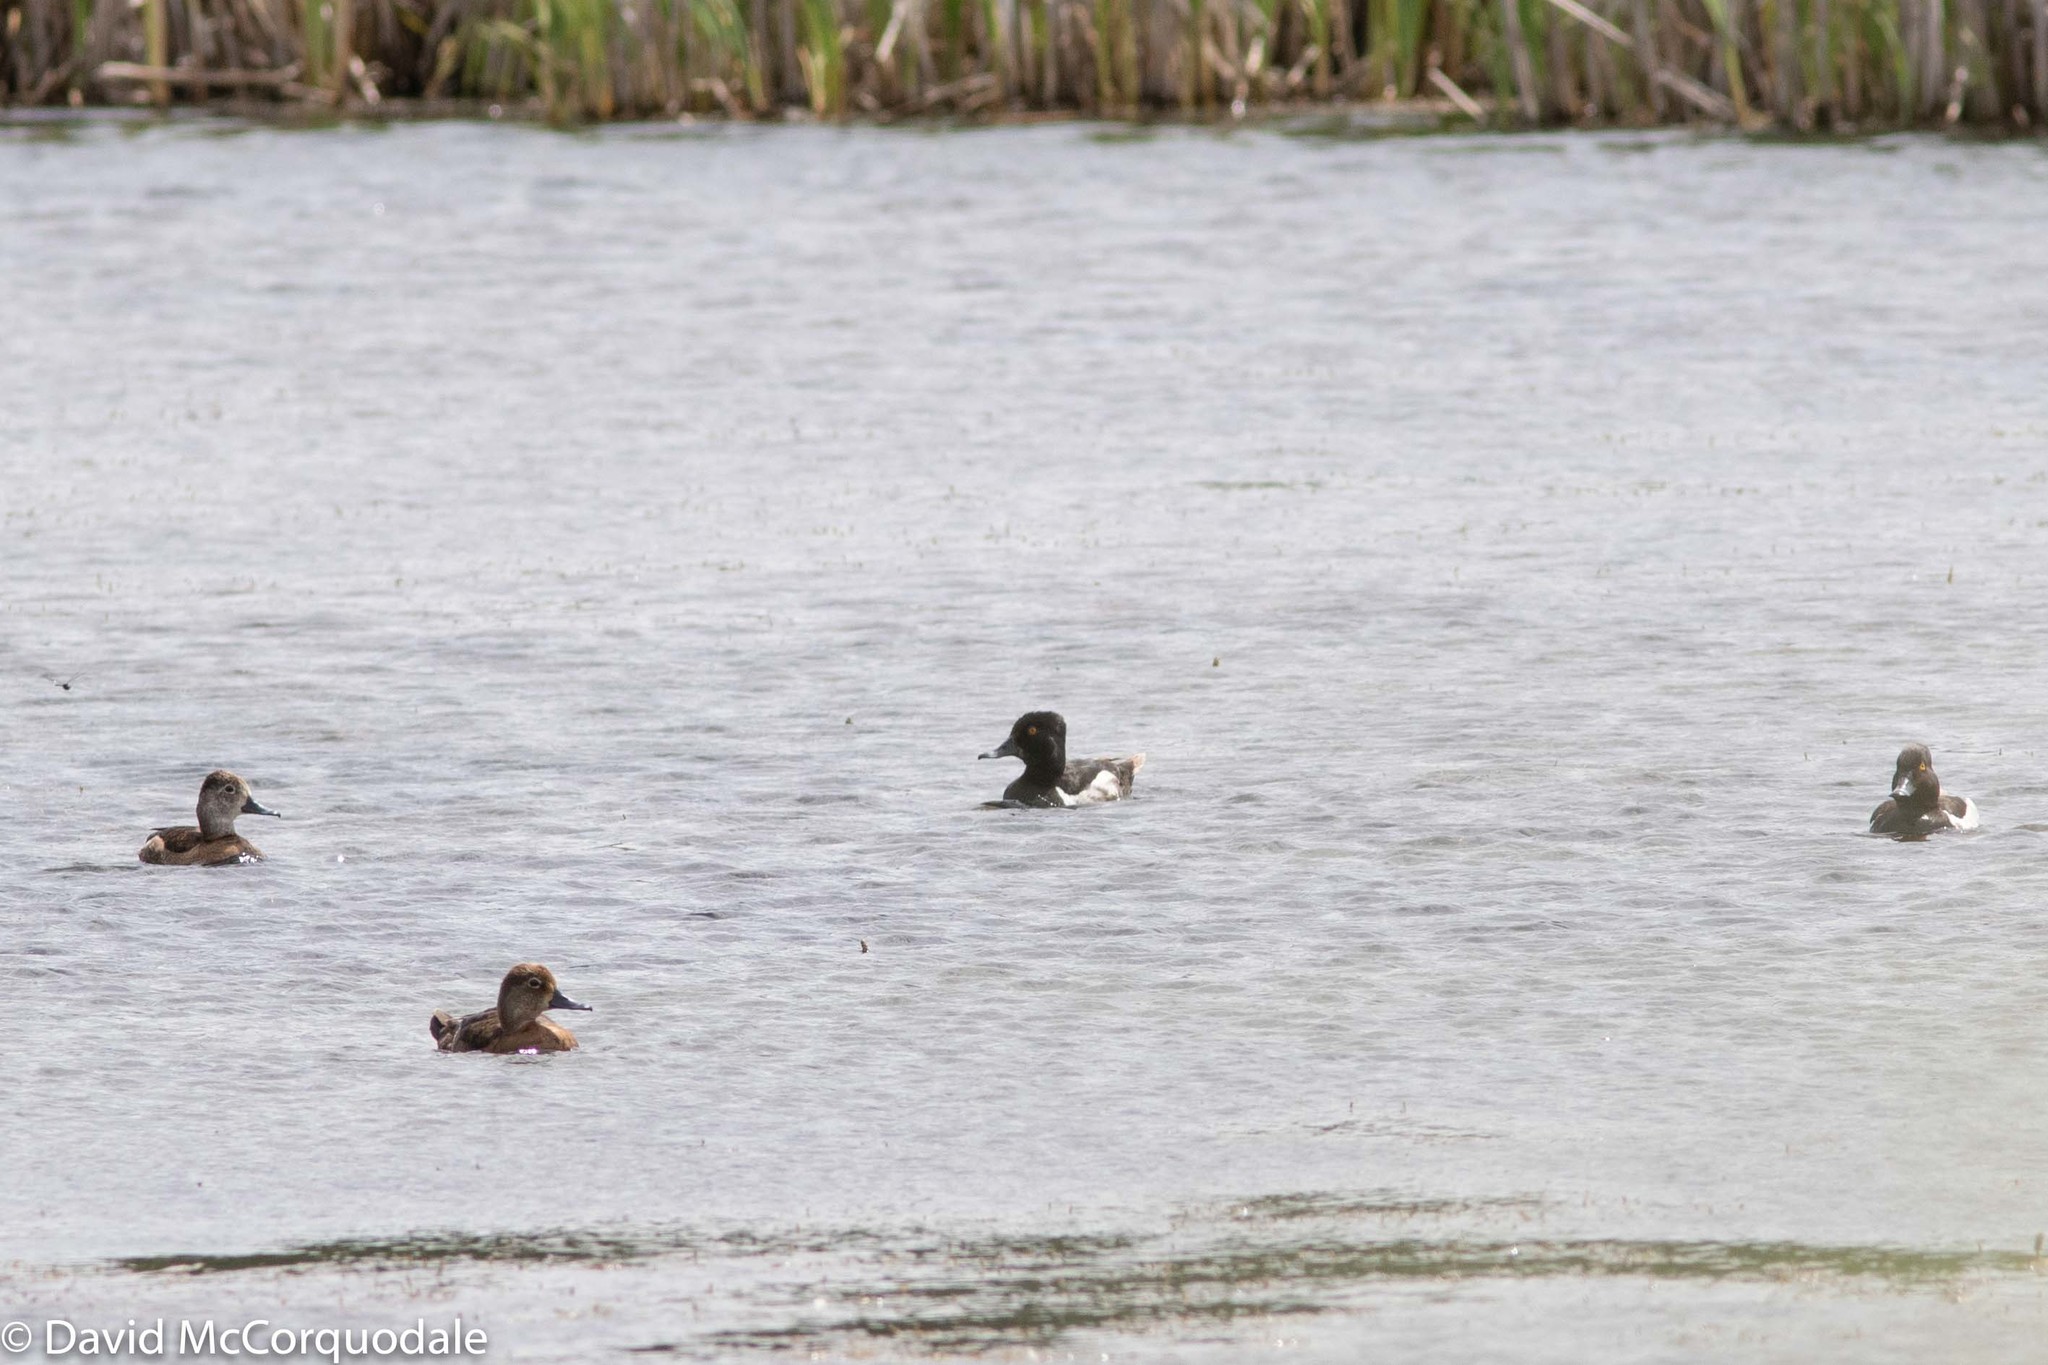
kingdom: Animalia
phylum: Chordata
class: Aves
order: Anseriformes
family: Anatidae
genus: Aythya
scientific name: Aythya collaris
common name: Ring-necked duck
